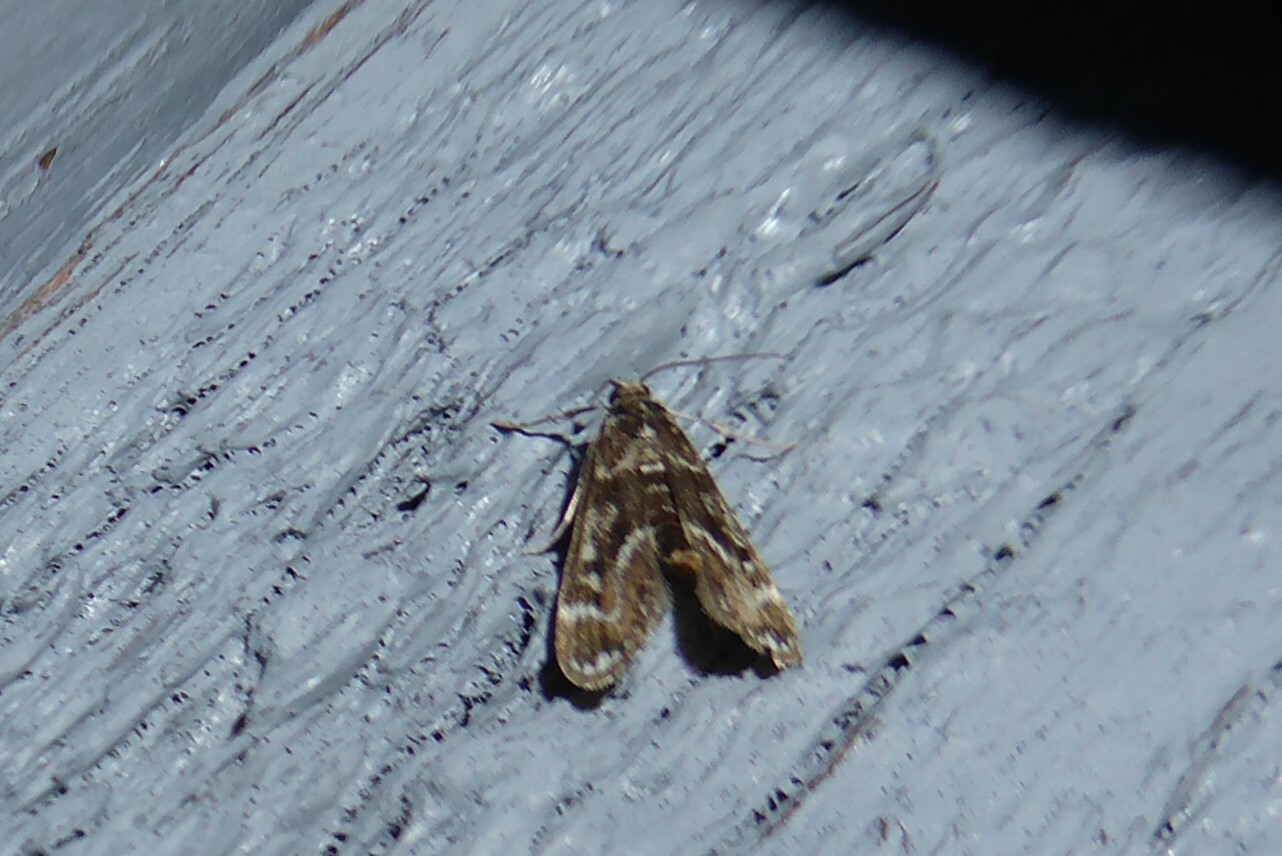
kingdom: Animalia
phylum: Arthropoda
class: Insecta
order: Lepidoptera
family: Crambidae
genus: Hygraula
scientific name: Hygraula nitens
